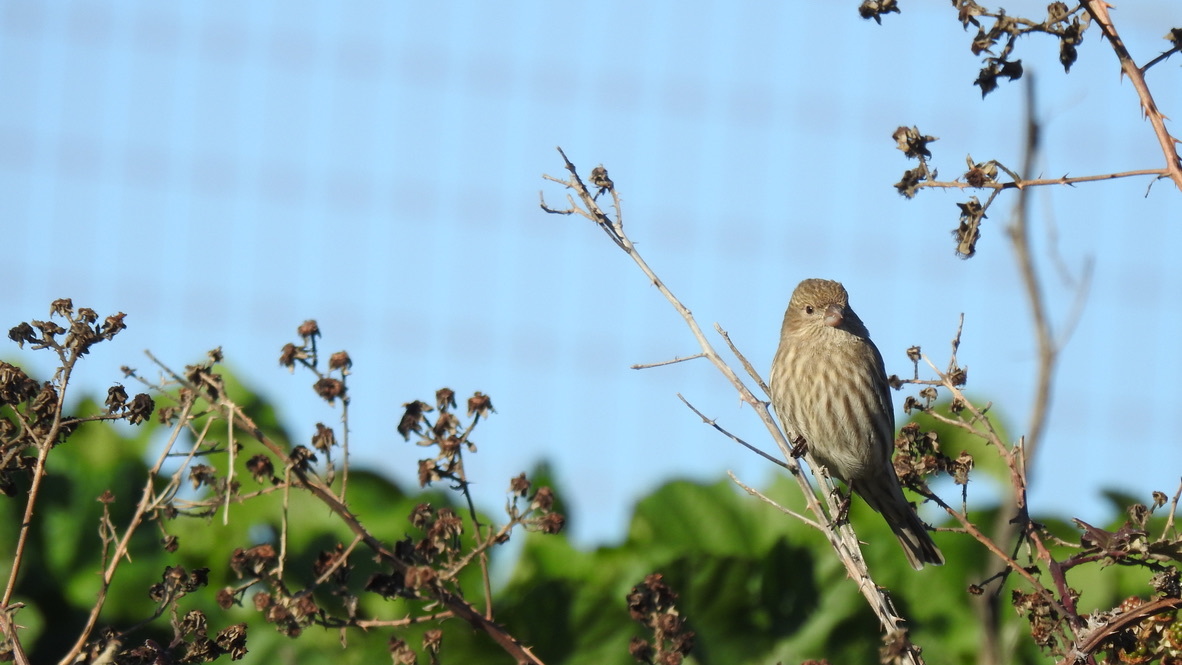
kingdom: Animalia
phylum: Chordata
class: Aves
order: Passeriformes
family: Fringillidae
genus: Haemorhous
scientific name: Haemorhous mexicanus
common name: House finch
